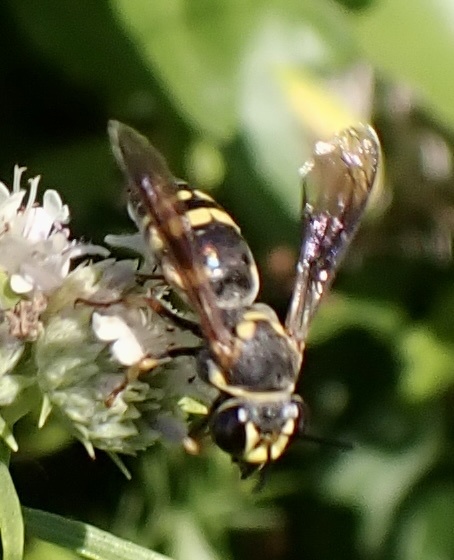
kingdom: Animalia
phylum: Arthropoda
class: Insecta
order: Hymenoptera
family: Crabronidae
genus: Bicyrtes
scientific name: Bicyrtes fodiens
